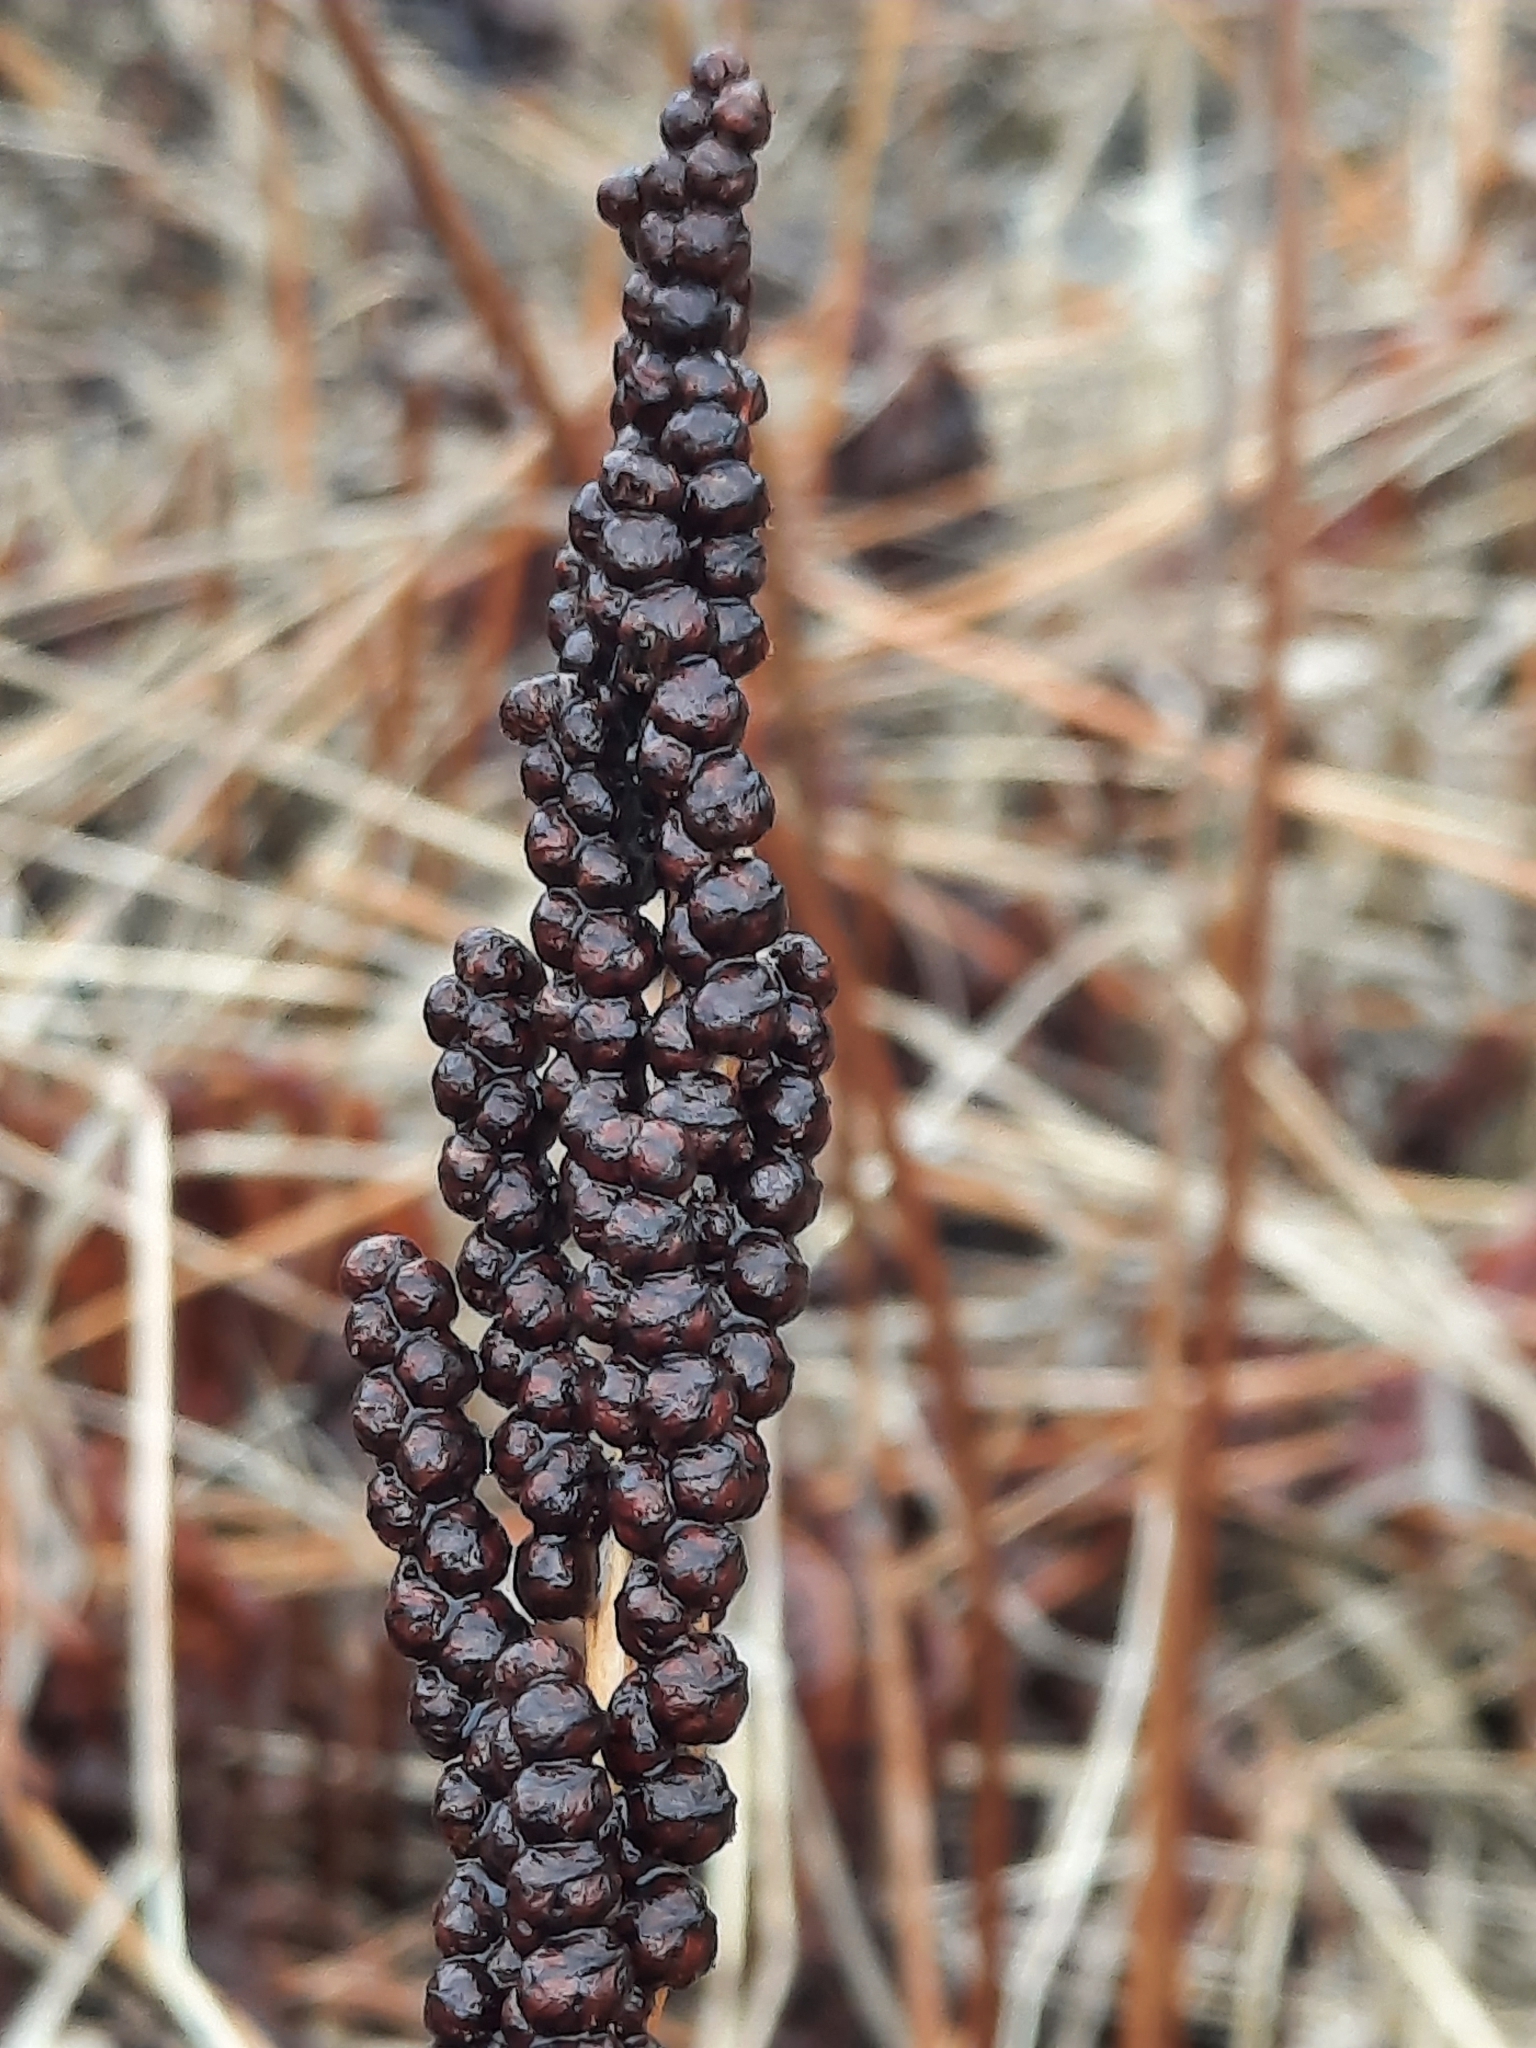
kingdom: Plantae
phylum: Tracheophyta
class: Polypodiopsida
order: Polypodiales
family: Onocleaceae
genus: Onoclea
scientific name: Onoclea sensibilis
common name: Sensitive fern
